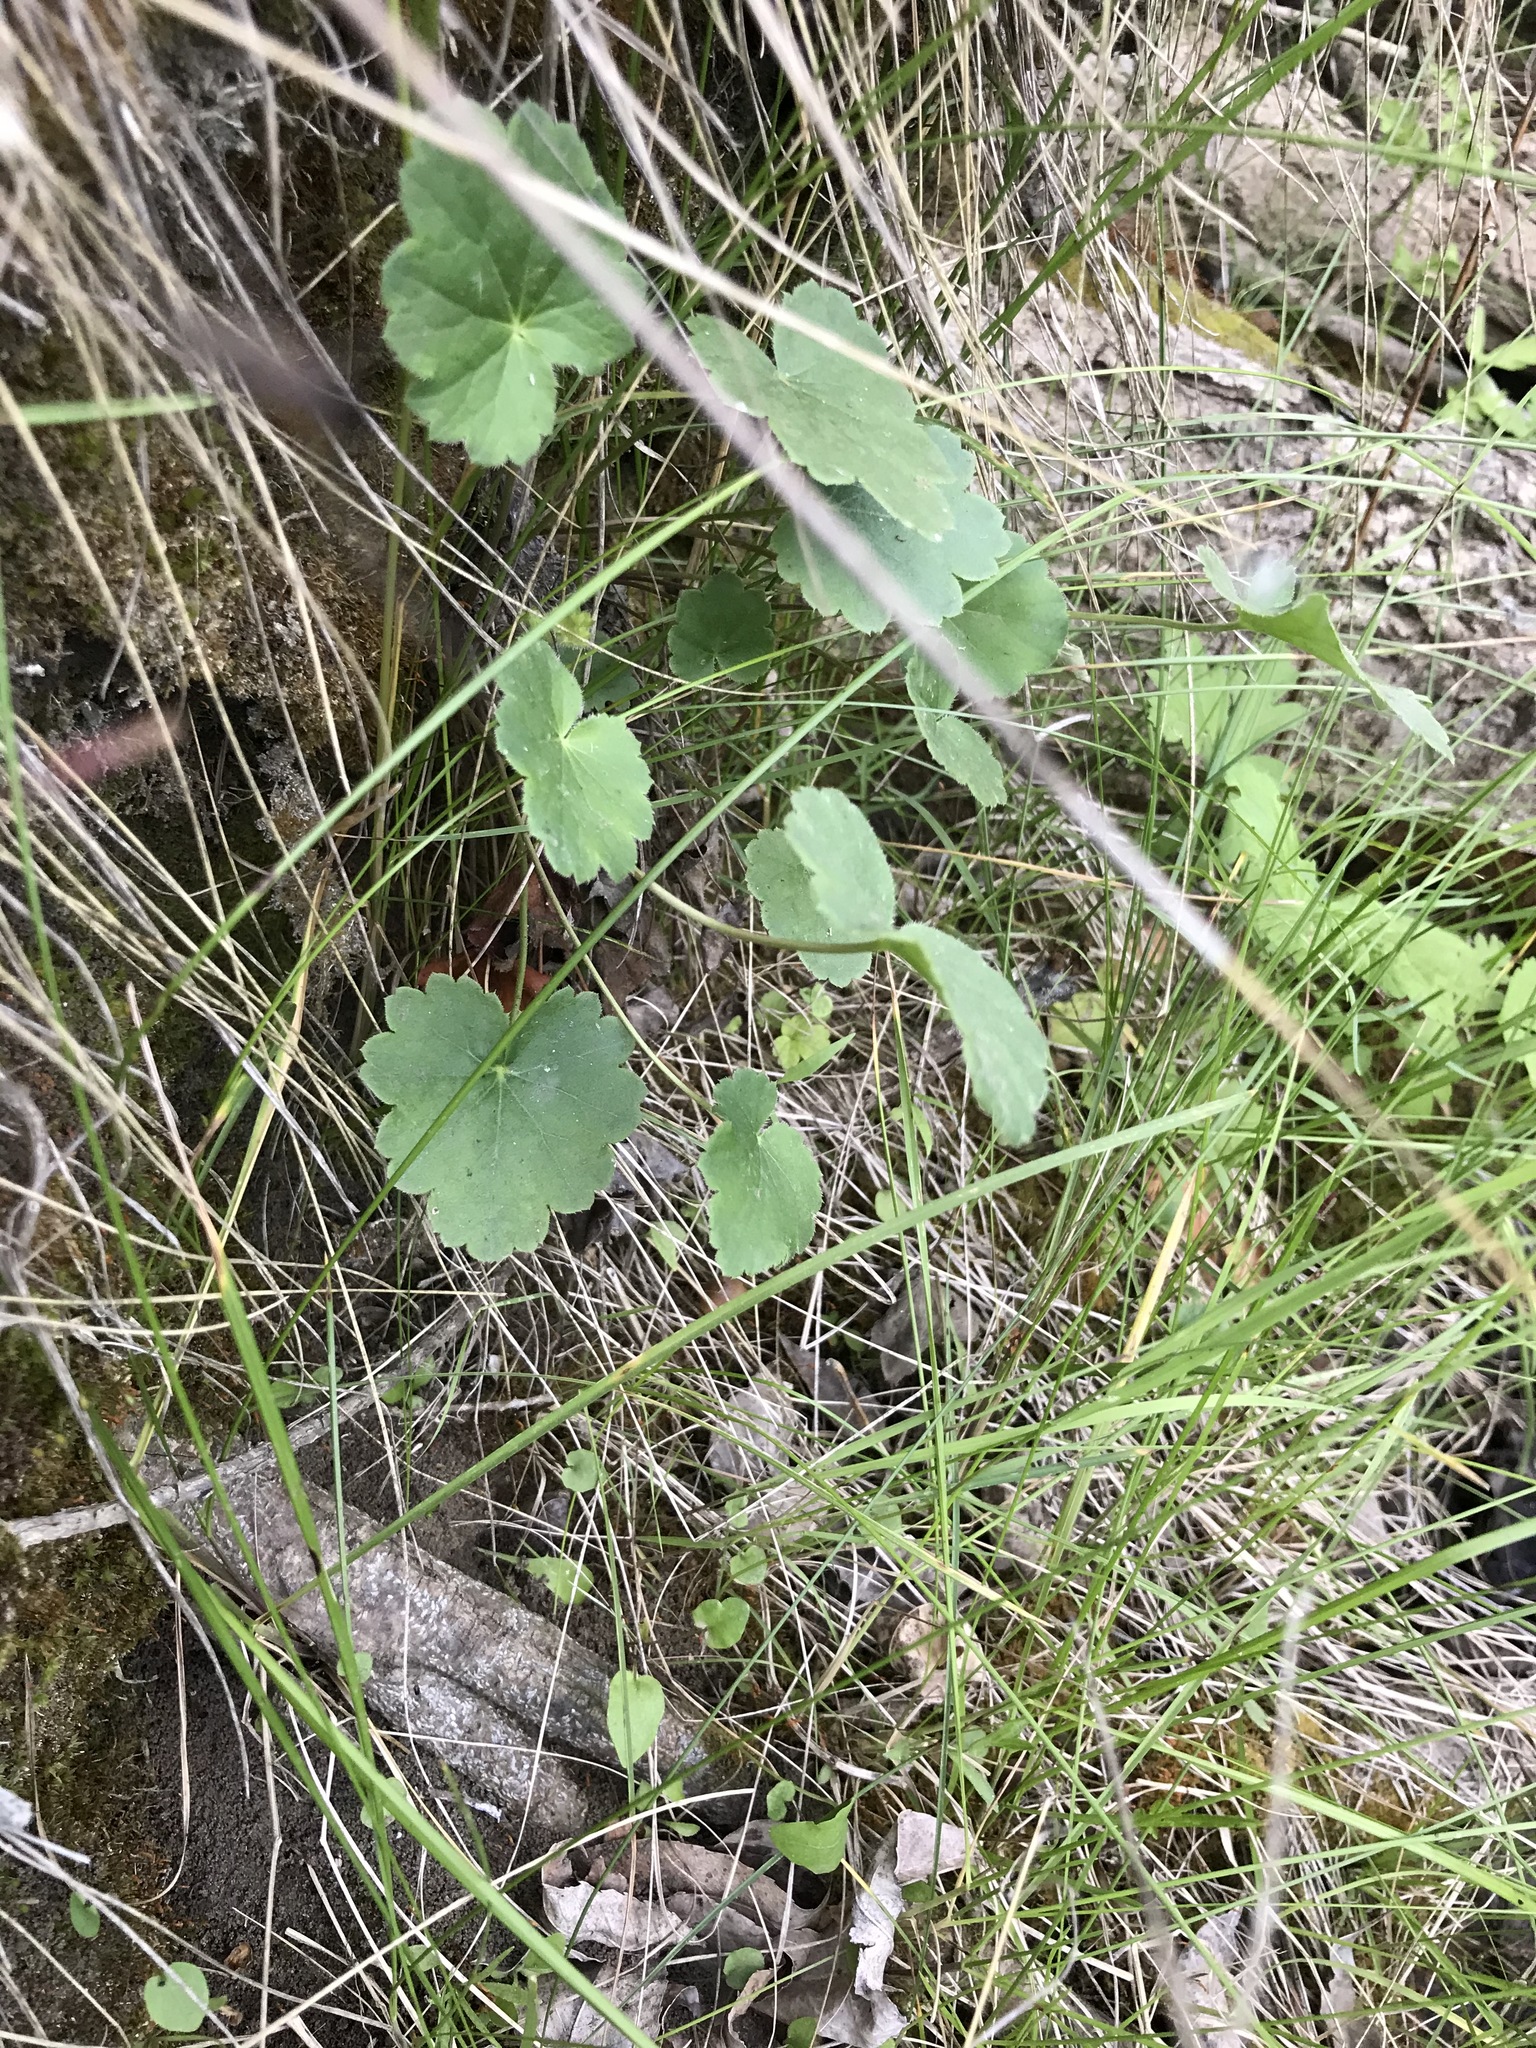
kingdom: Plantae
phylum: Tracheophyta
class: Magnoliopsida
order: Saxifragales
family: Saxifragaceae
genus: Heuchera
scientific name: Heuchera richardsonii
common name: Richardson's alumroot
